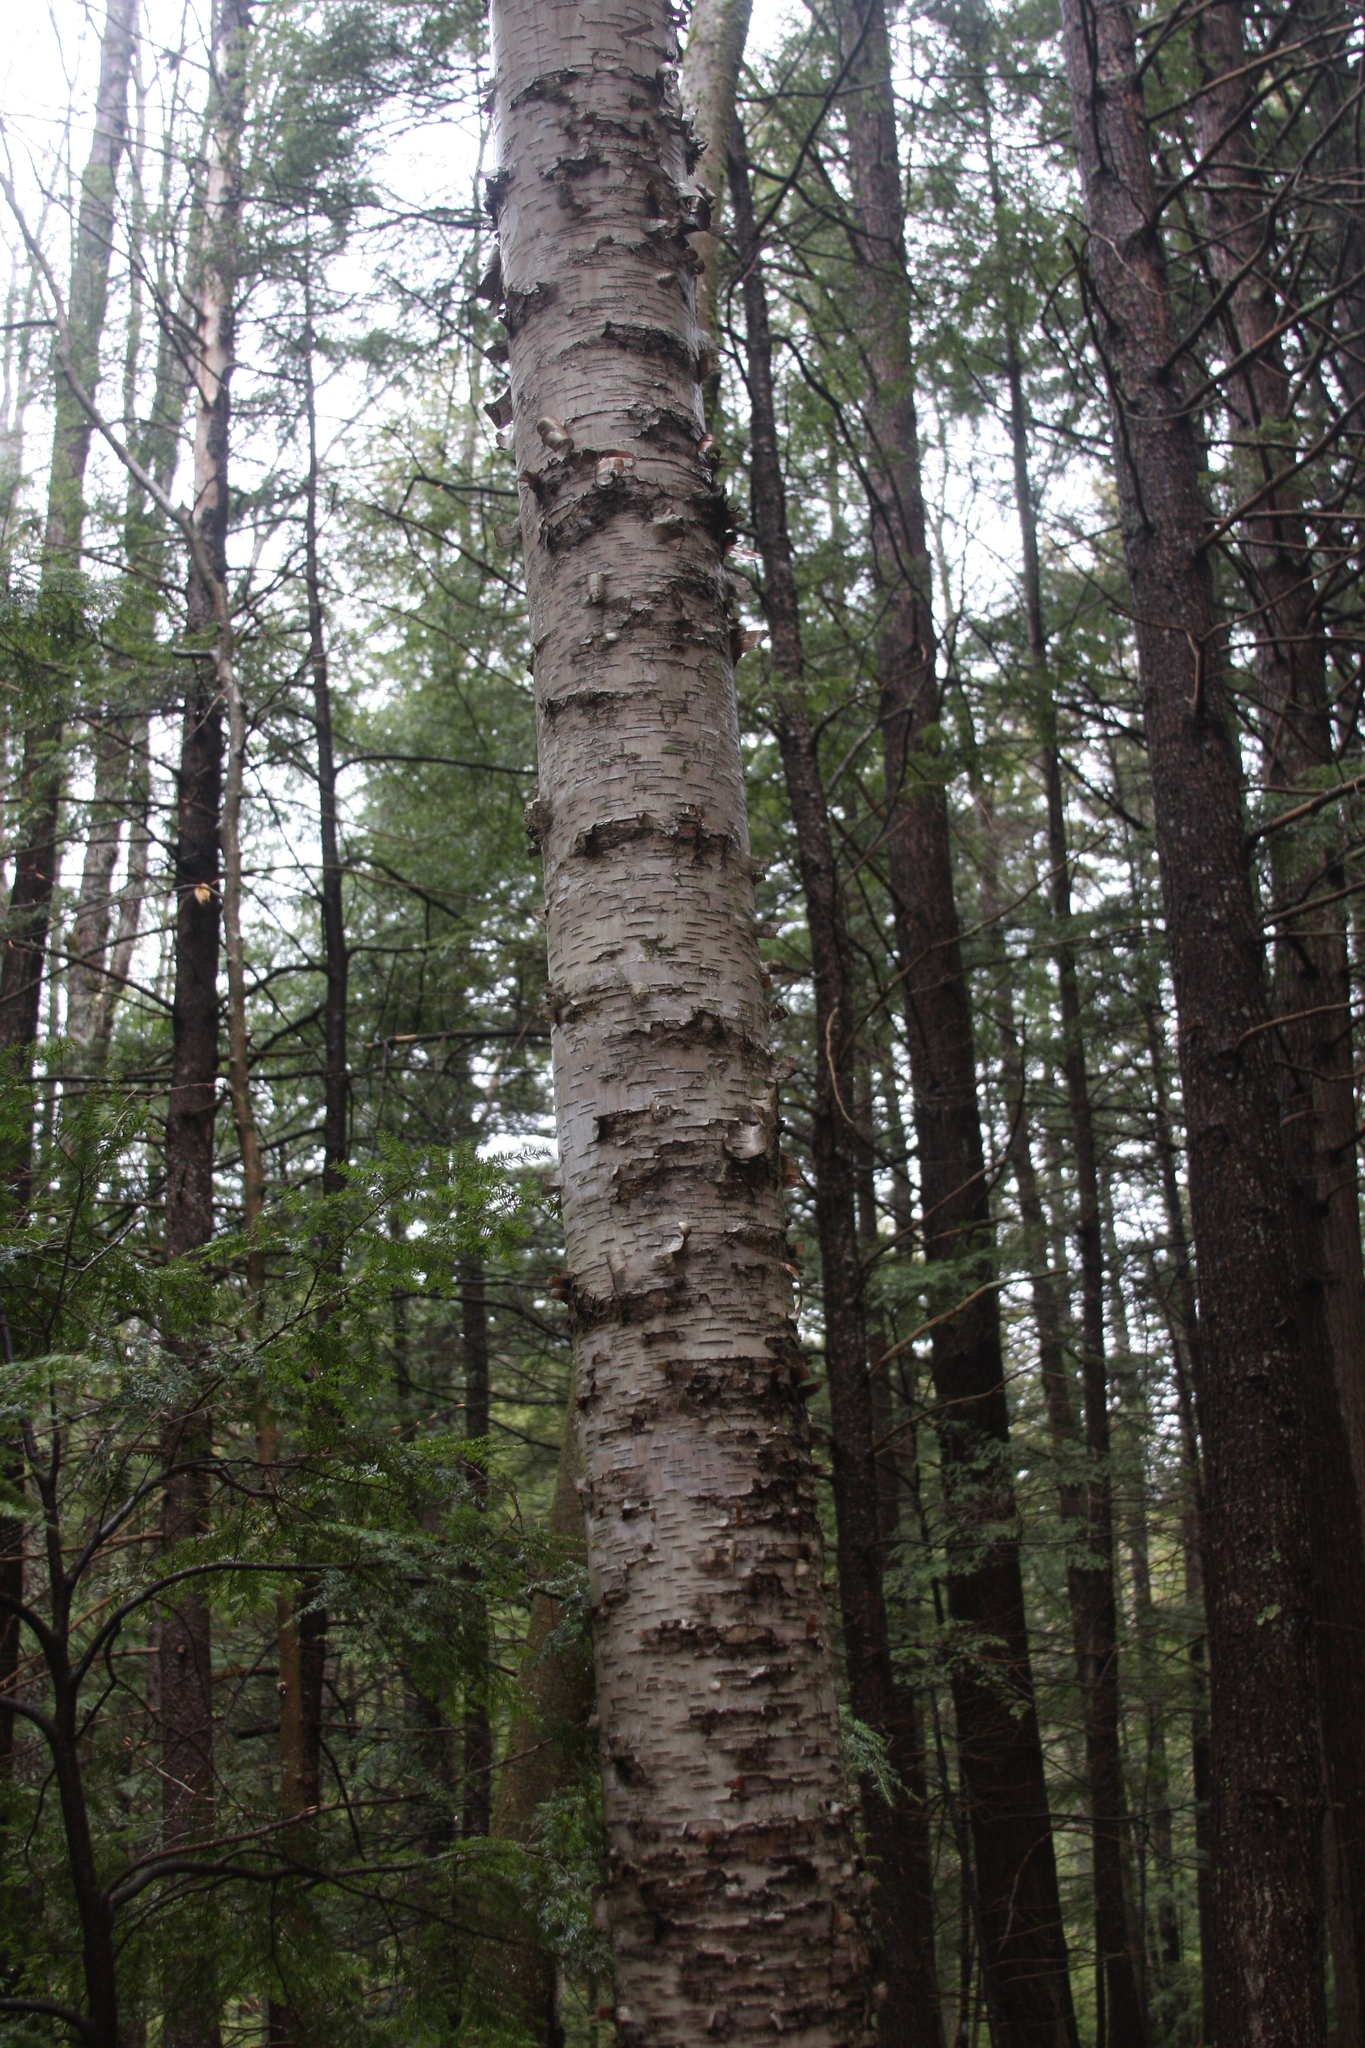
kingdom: Plantae
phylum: Tracheophyta
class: Magnoliopsida
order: Fagales
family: Betulaceae
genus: Betula
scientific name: Betula papyrifera
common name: Paper birch
